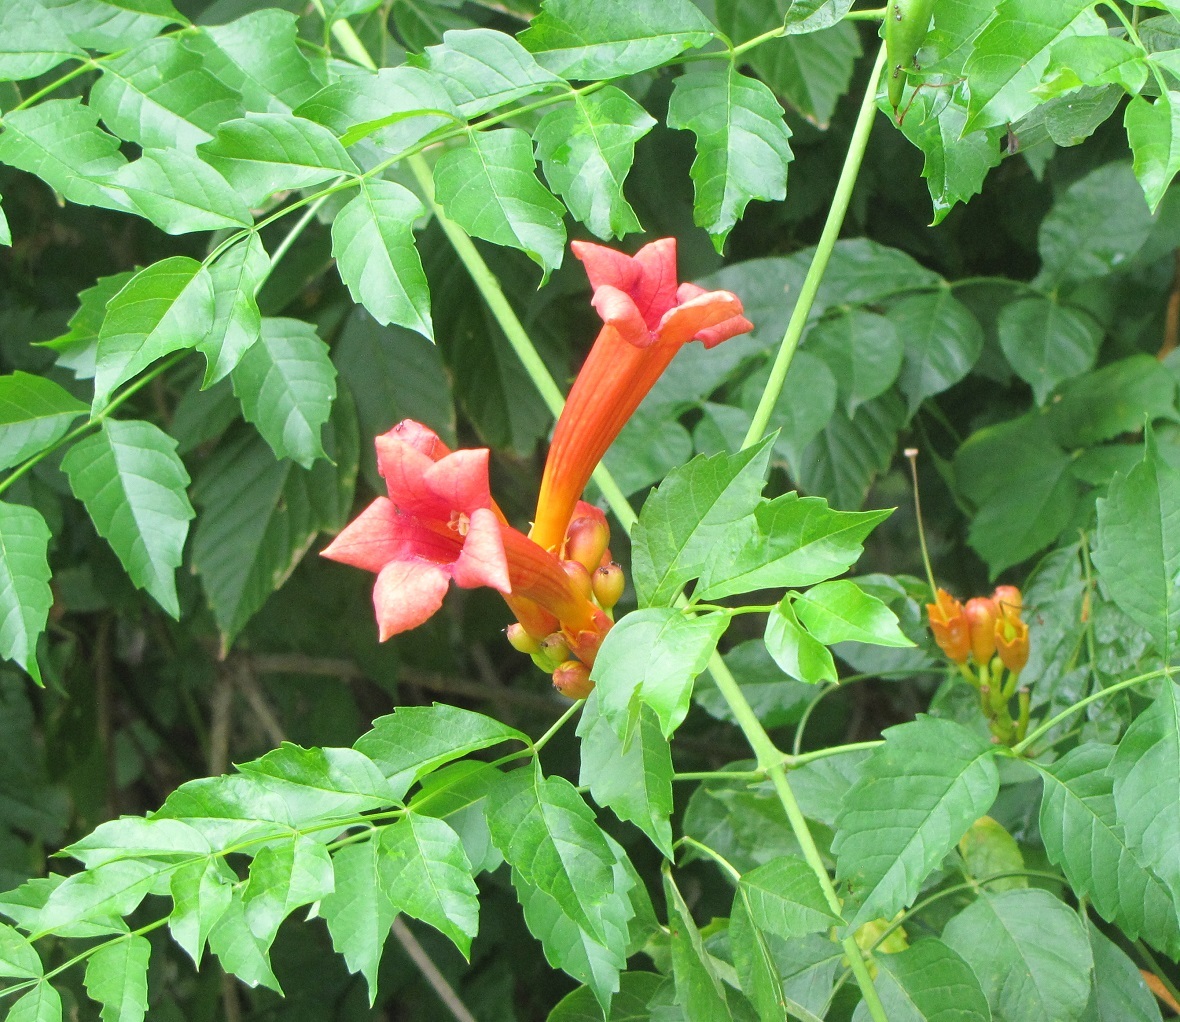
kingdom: Plantae
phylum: Tracheophyta
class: Magnoliopsida
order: Lamiales
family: Bignoniaceae
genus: Campsis
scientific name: Campsis radicans
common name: Trumpet-creeper
